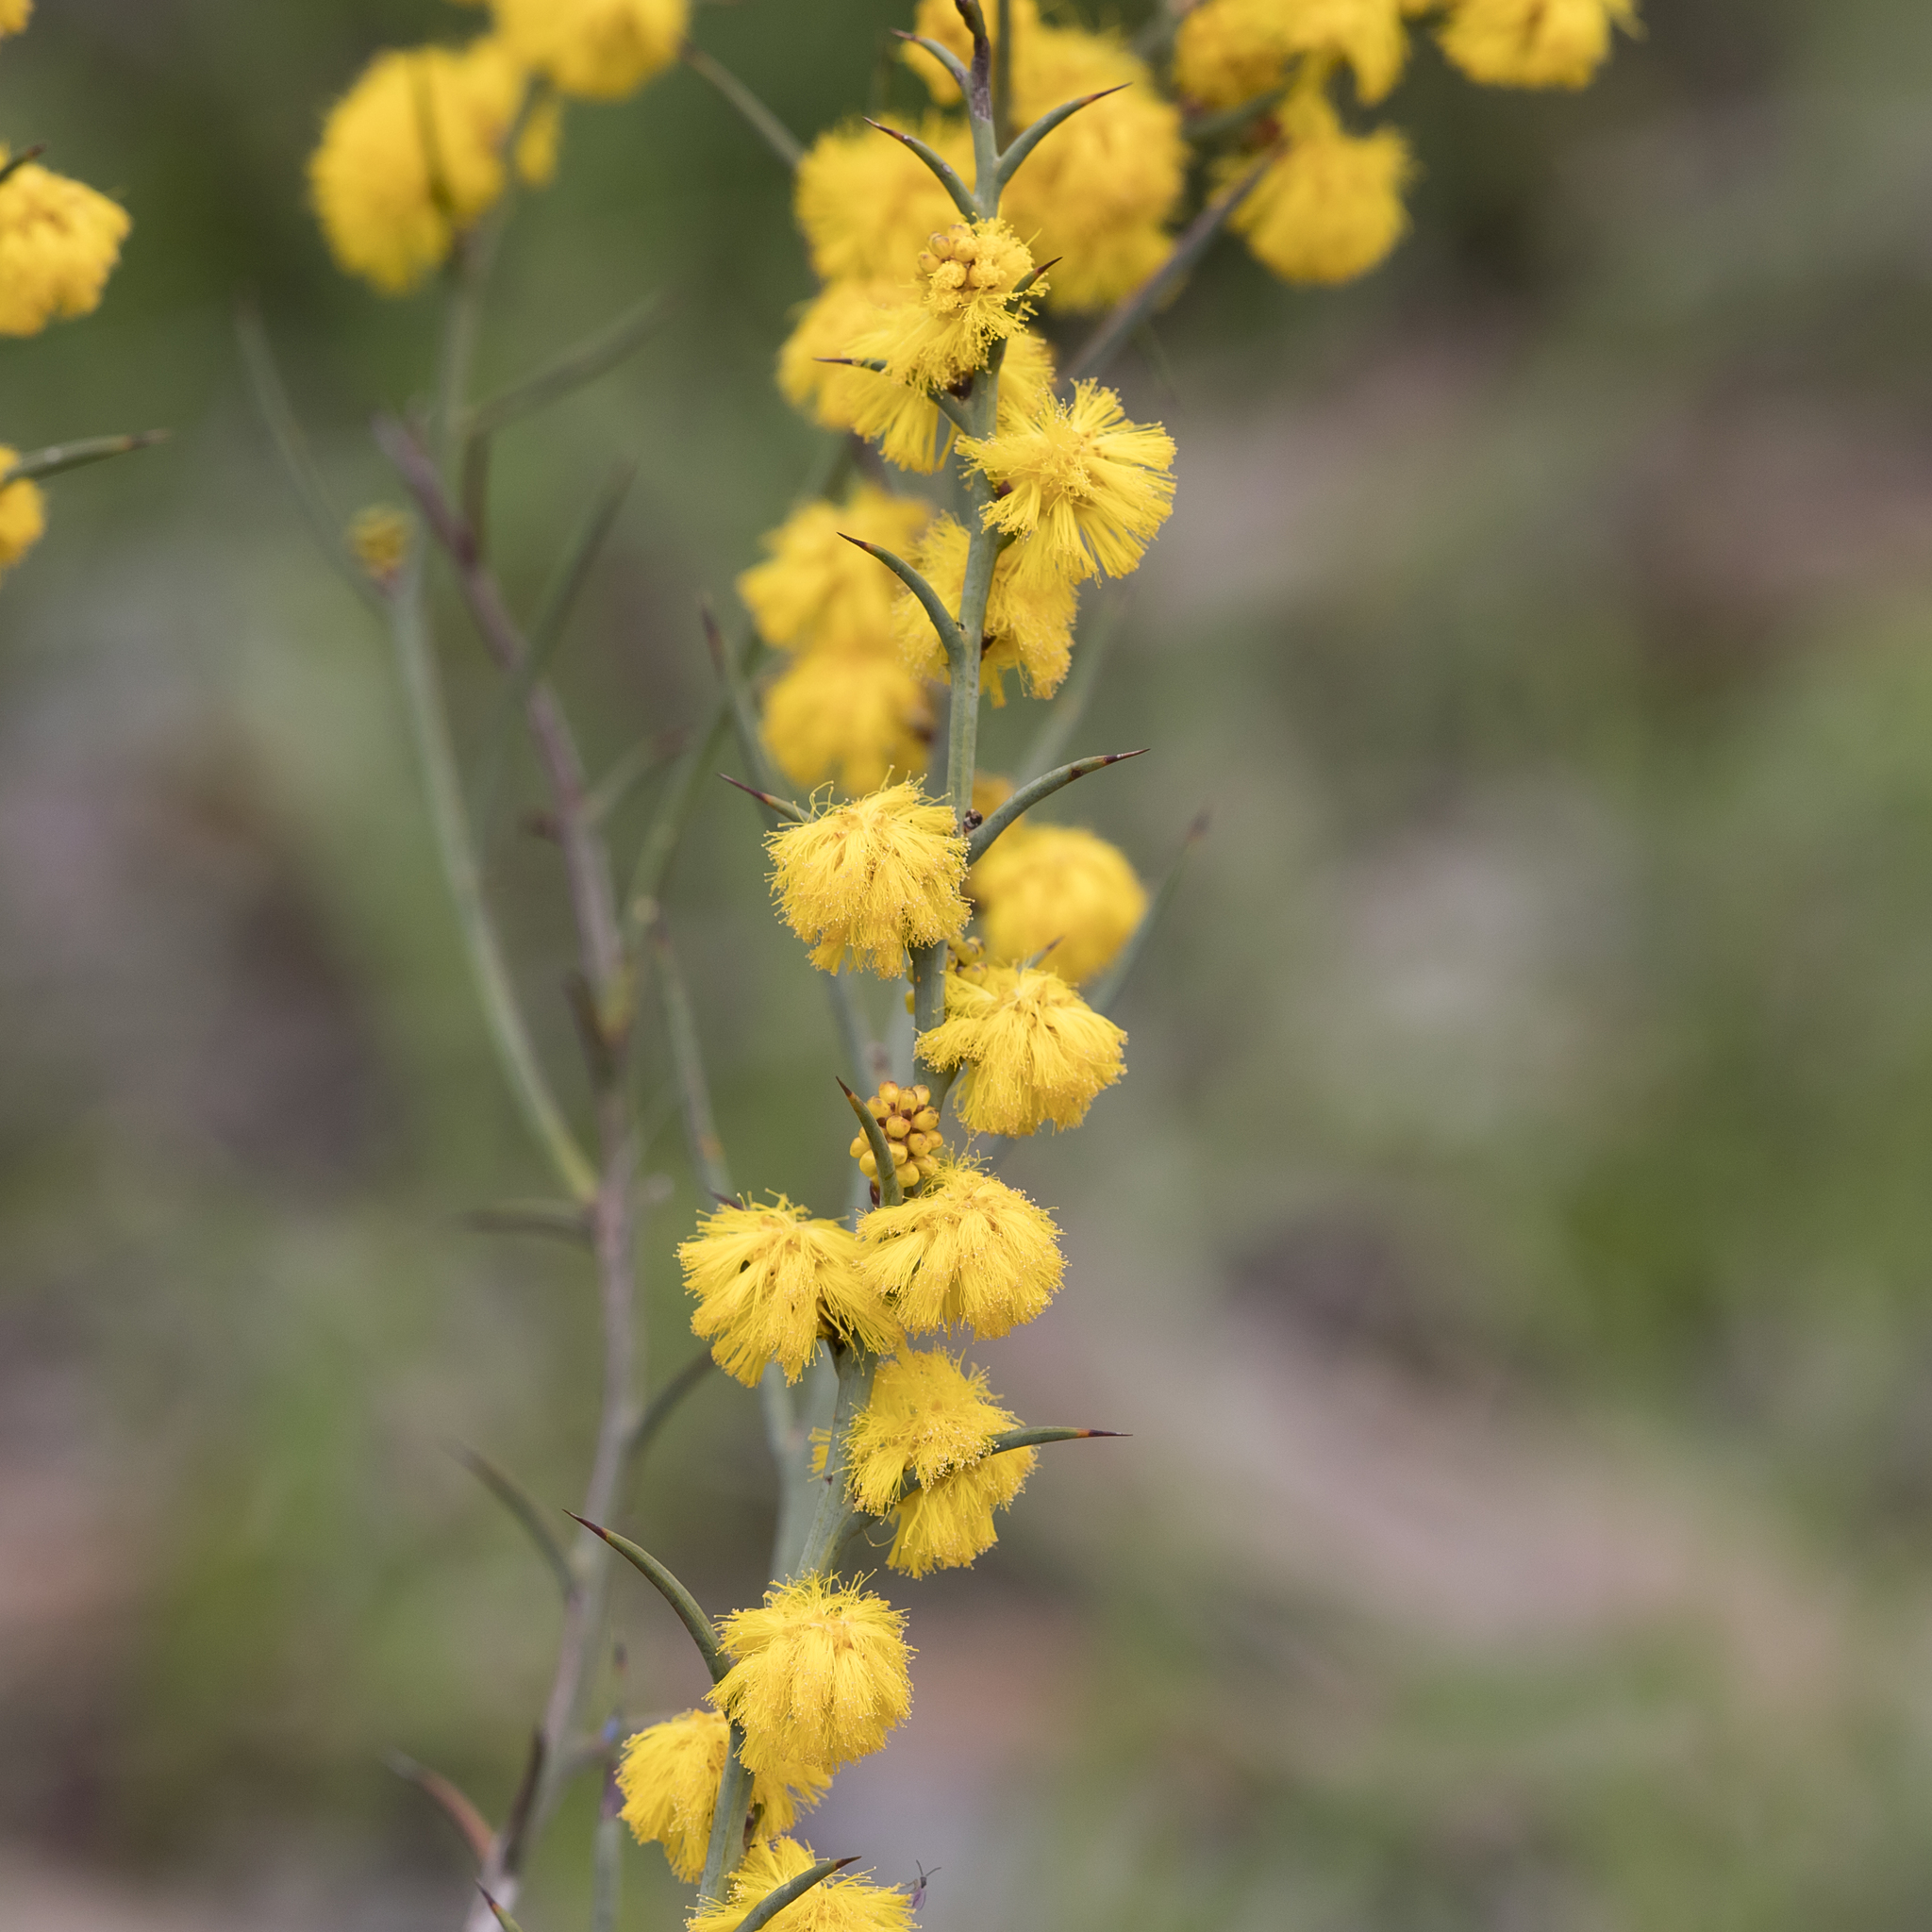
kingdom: Plantae
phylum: Tracheophyta
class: Magnoliopsida
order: Fabales
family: Fabaceae
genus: Acacia
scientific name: Acacia continua
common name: Thorn wattle
